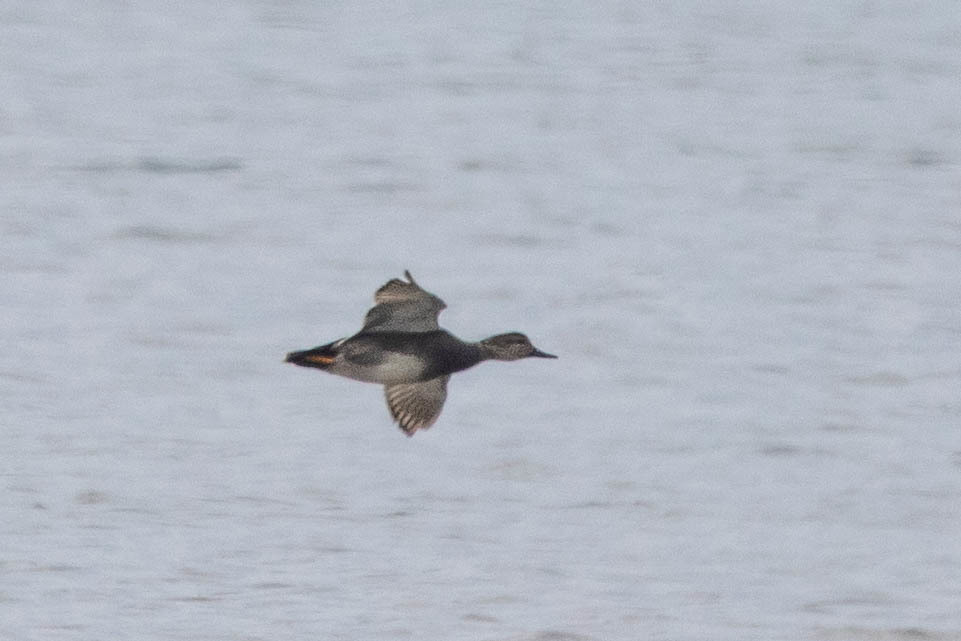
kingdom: Animalia
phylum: Chordata
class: Aves
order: Anseriformes
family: Anatidae
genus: Mareca
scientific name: Mareca strepera
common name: Gadwall
